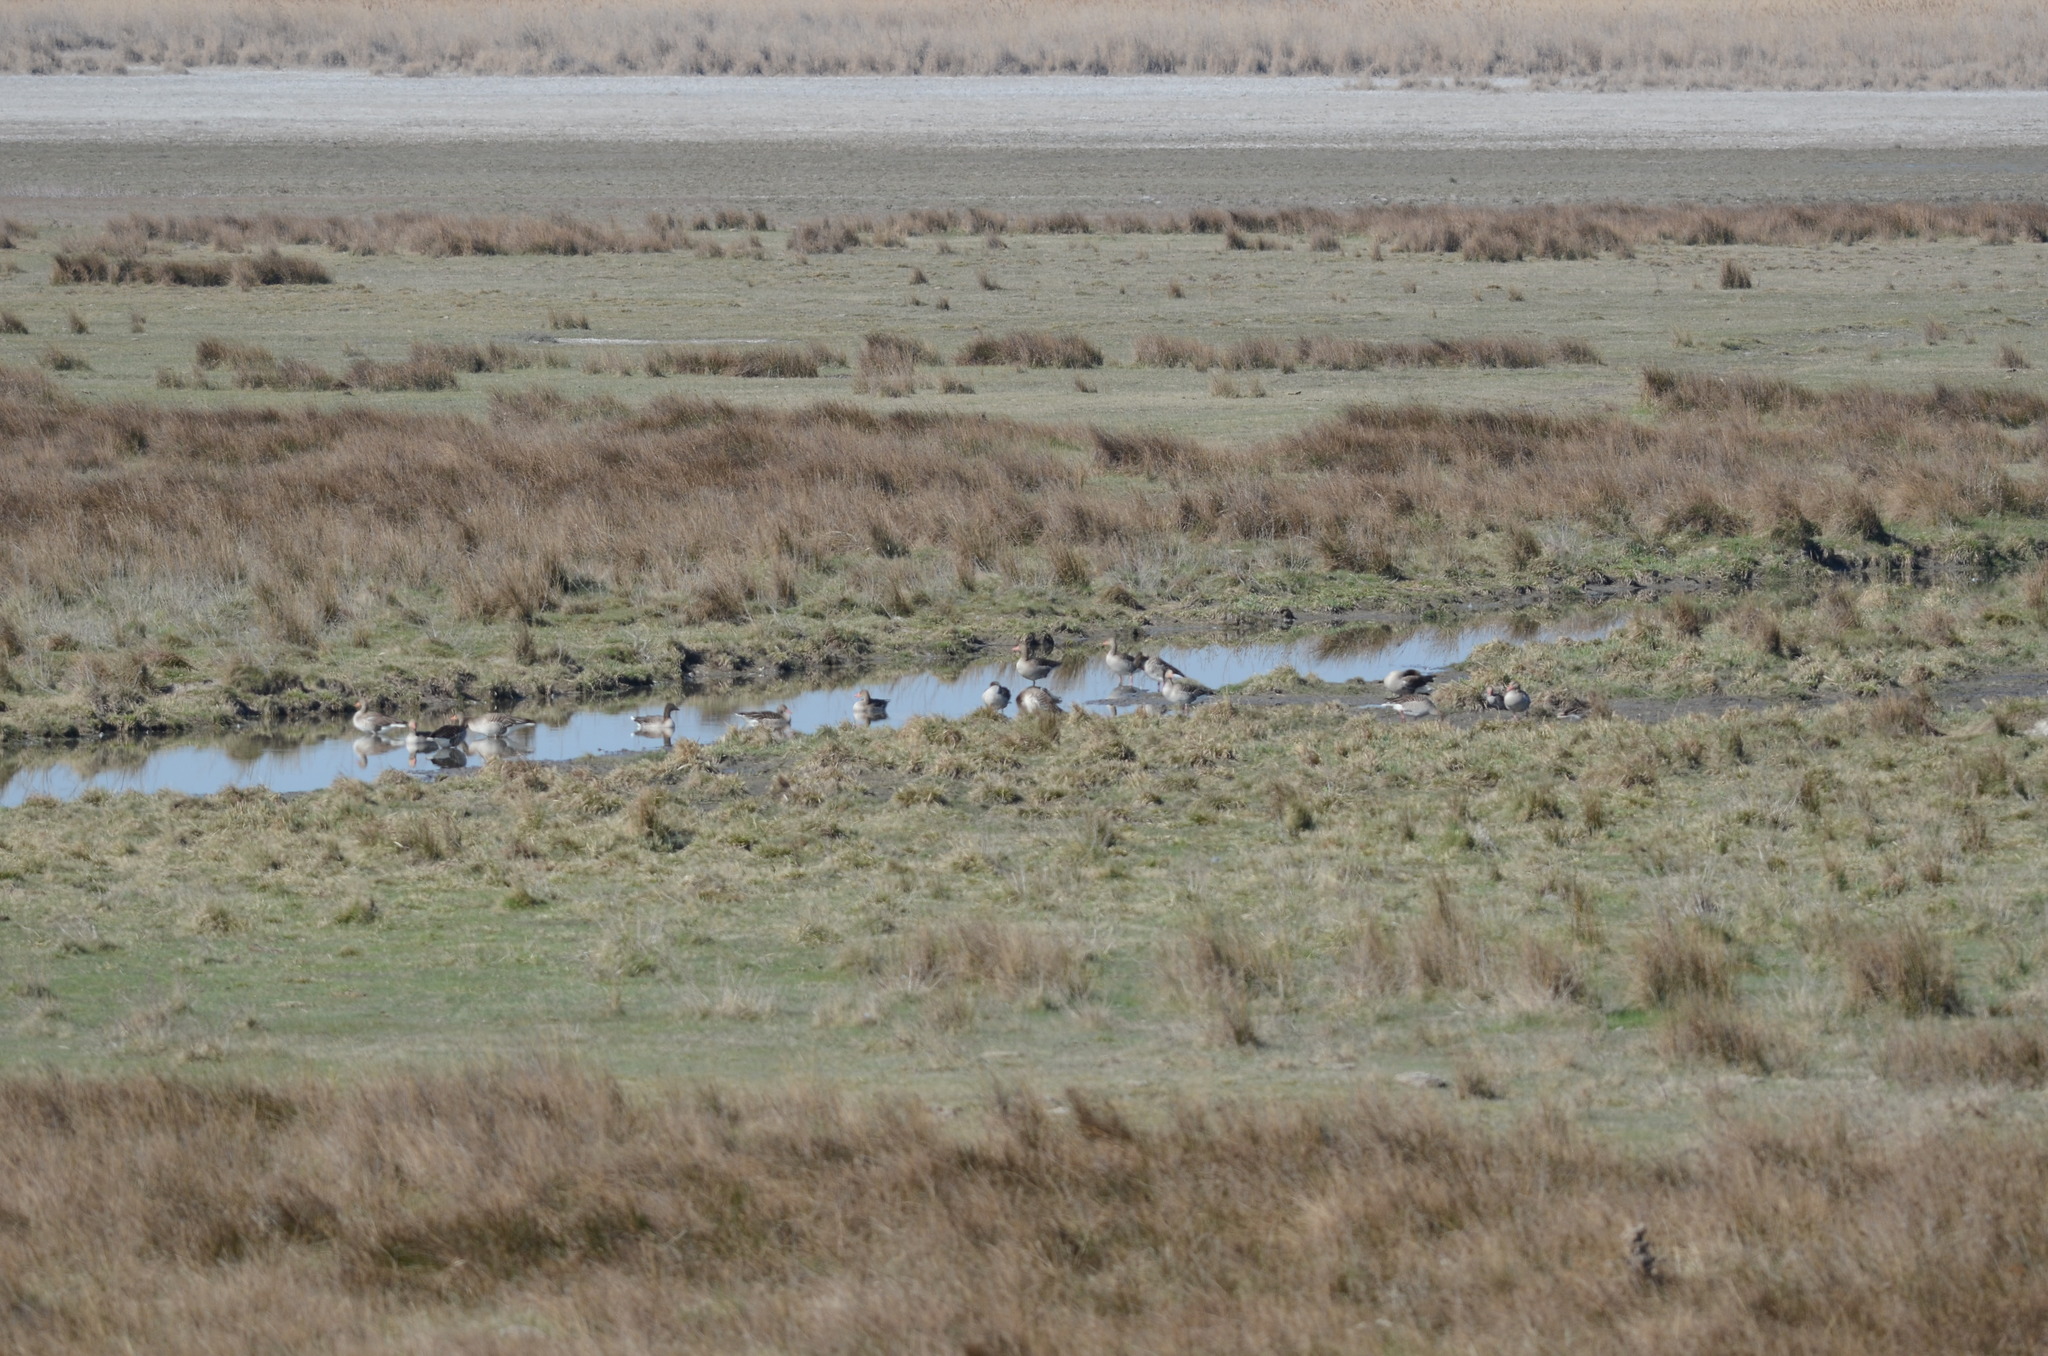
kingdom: Animalia
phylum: Chordata
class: Aves
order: Anseriformes
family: Anatidae
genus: Anser
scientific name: Anser anser
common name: Greylag goose
